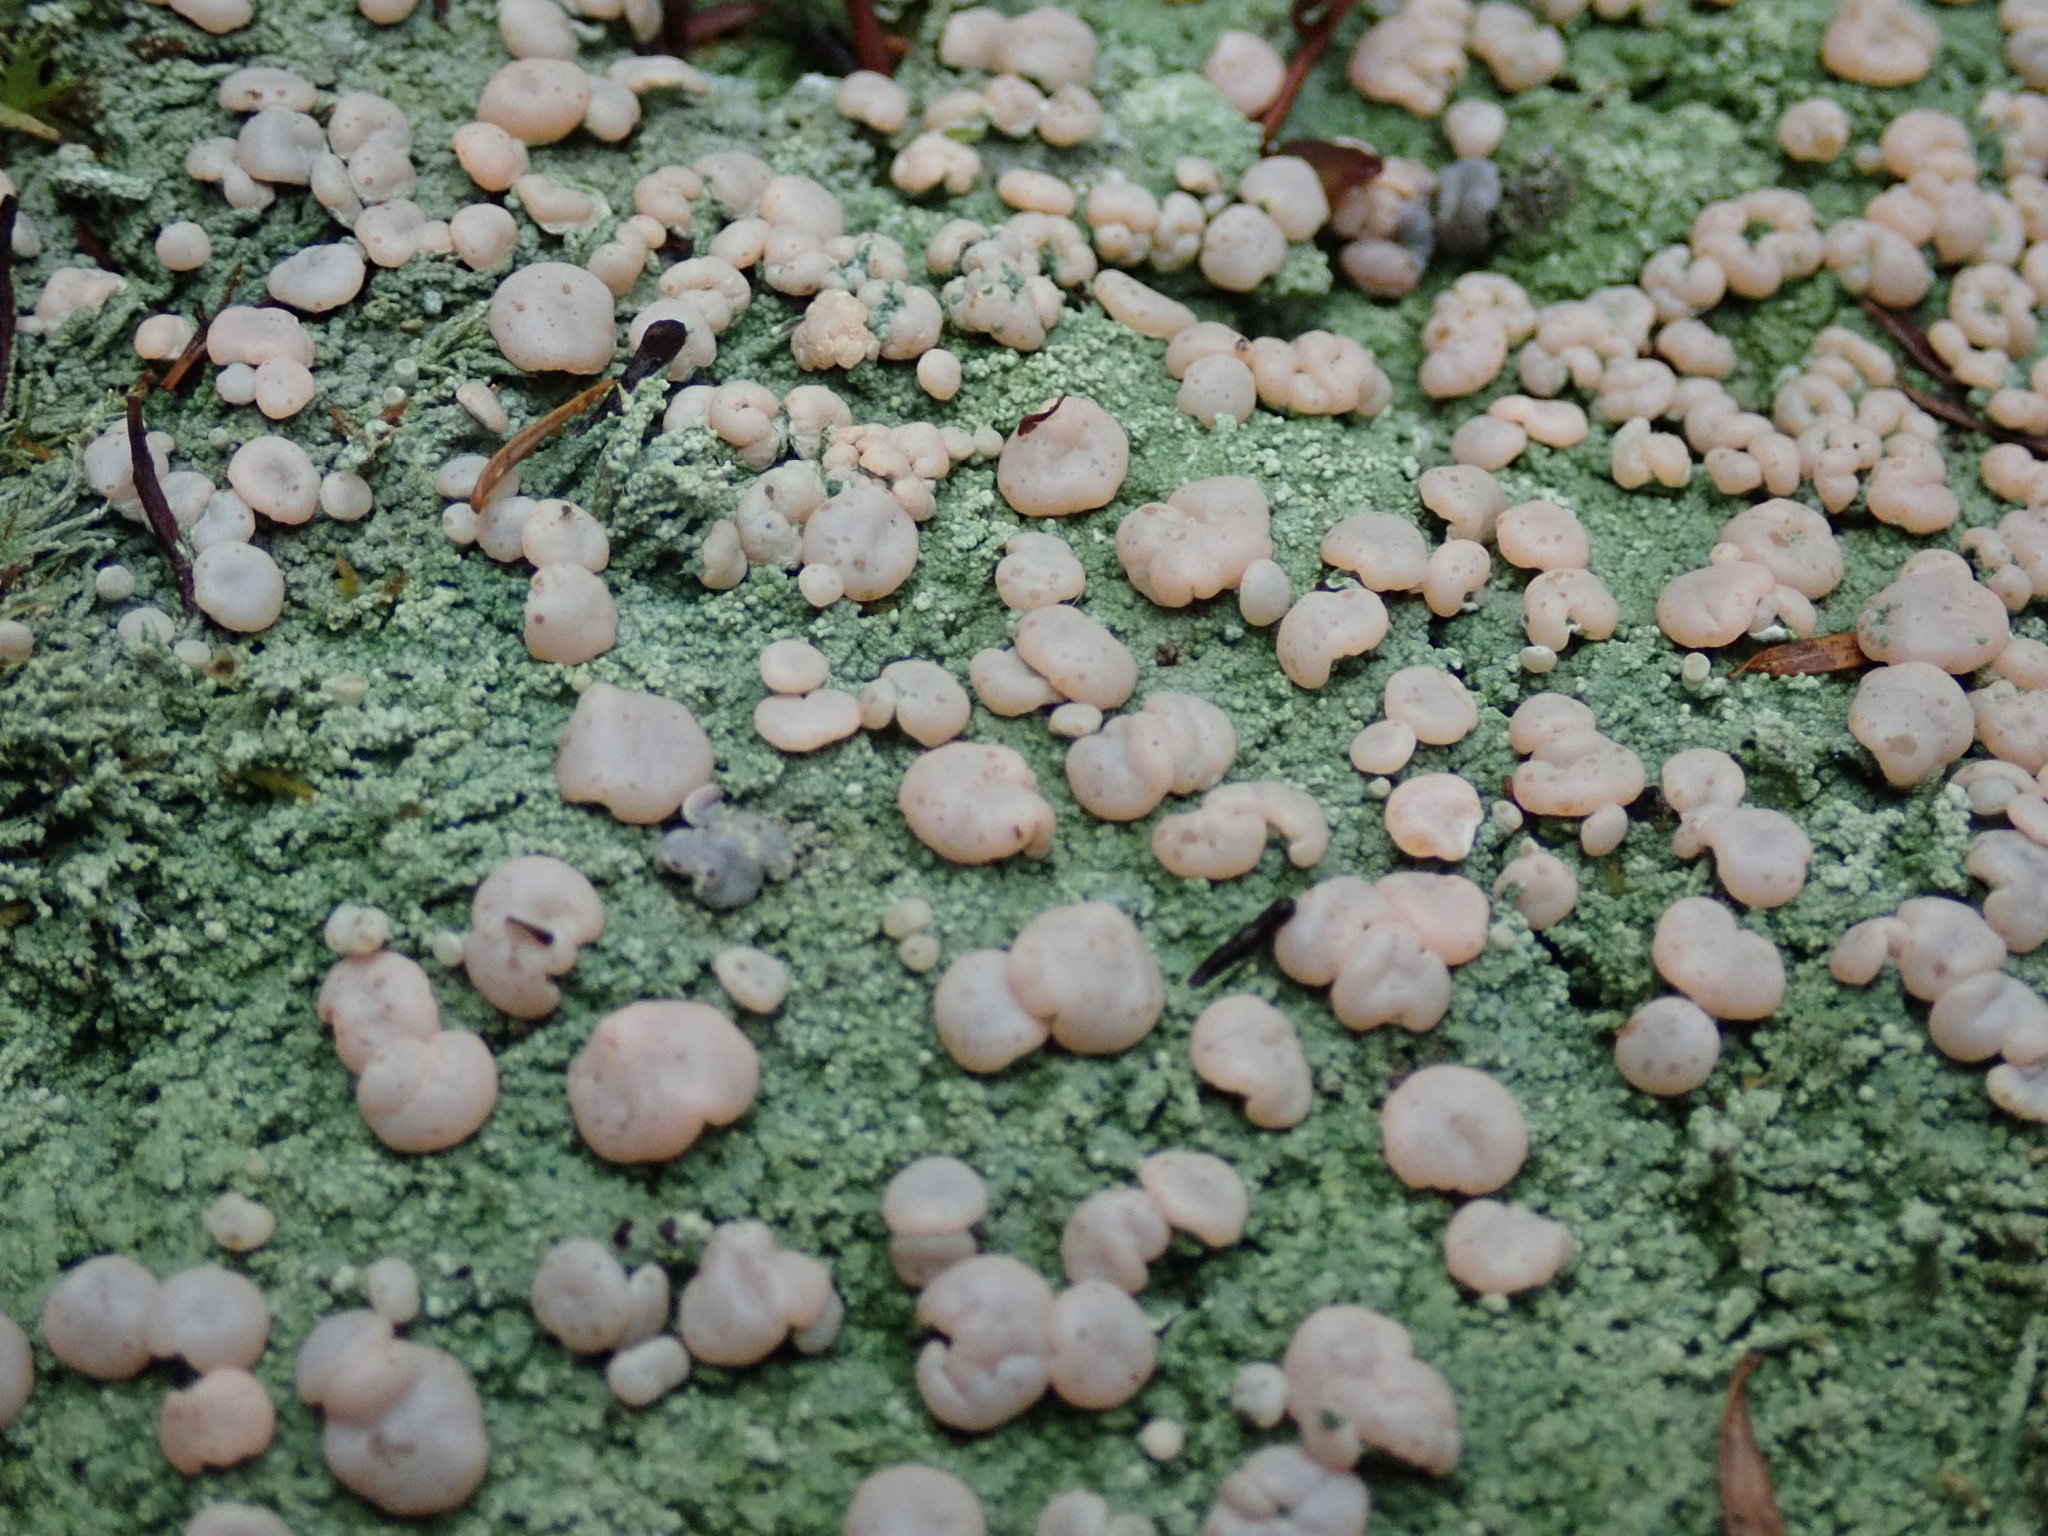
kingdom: Fungi
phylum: Ascomycota
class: Lecanoromycetes
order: Pertusariales
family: Icmadophilaceae
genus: Icmadophila
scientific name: Icmadophila ericetorum
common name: Candy lichen
